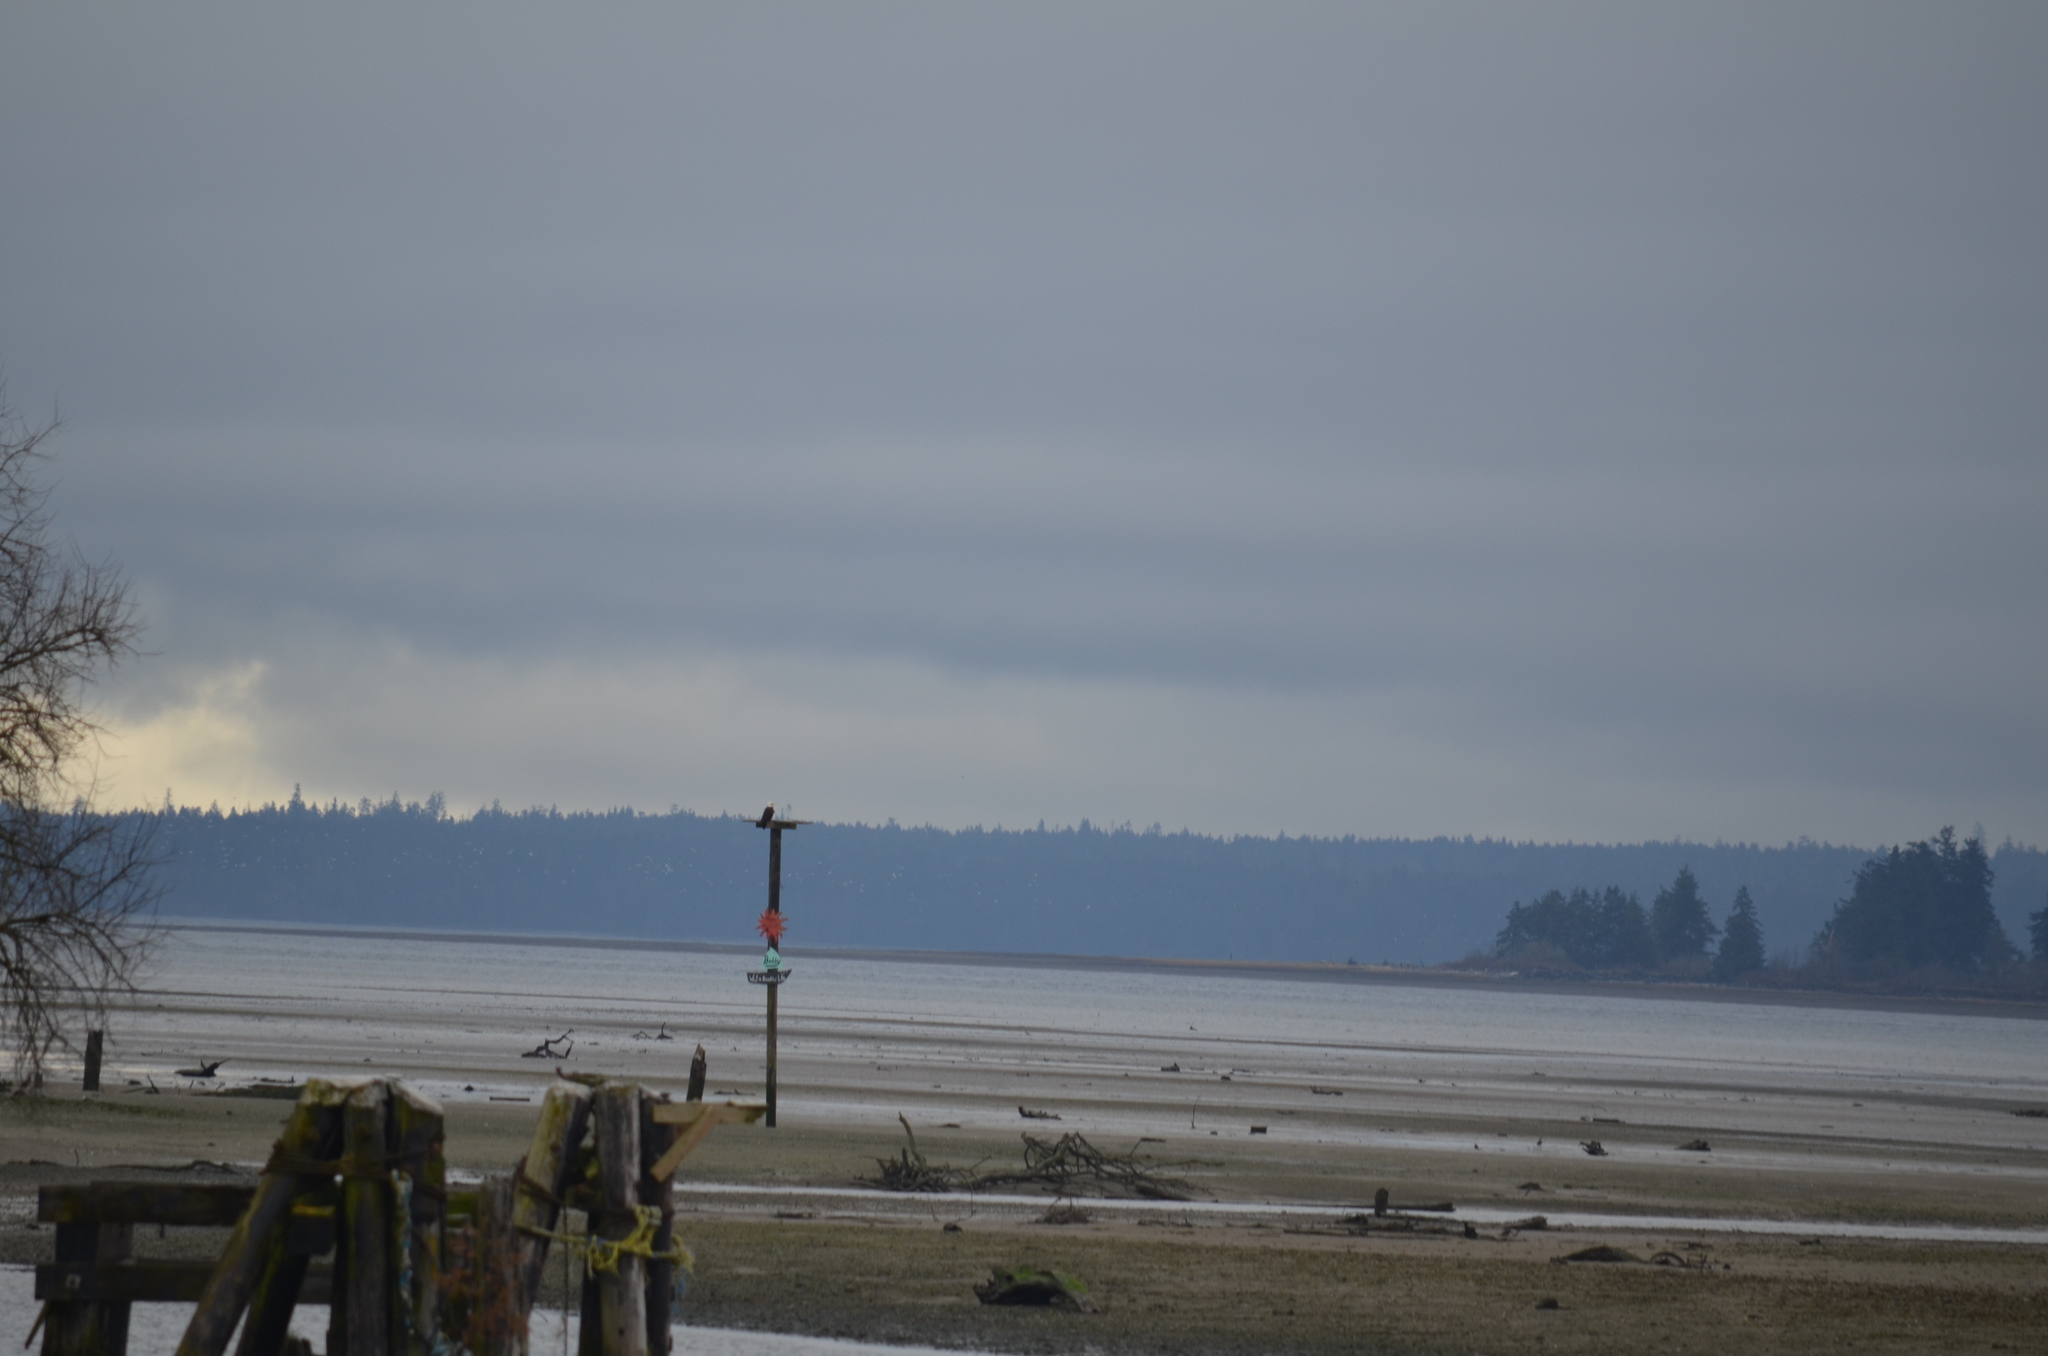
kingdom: Animalia
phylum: Chordata
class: Aves
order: Accipitriformes
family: Accipitridae
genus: Haliaeetus
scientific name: Haliaeetus leucocephalus
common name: Bald eagle
